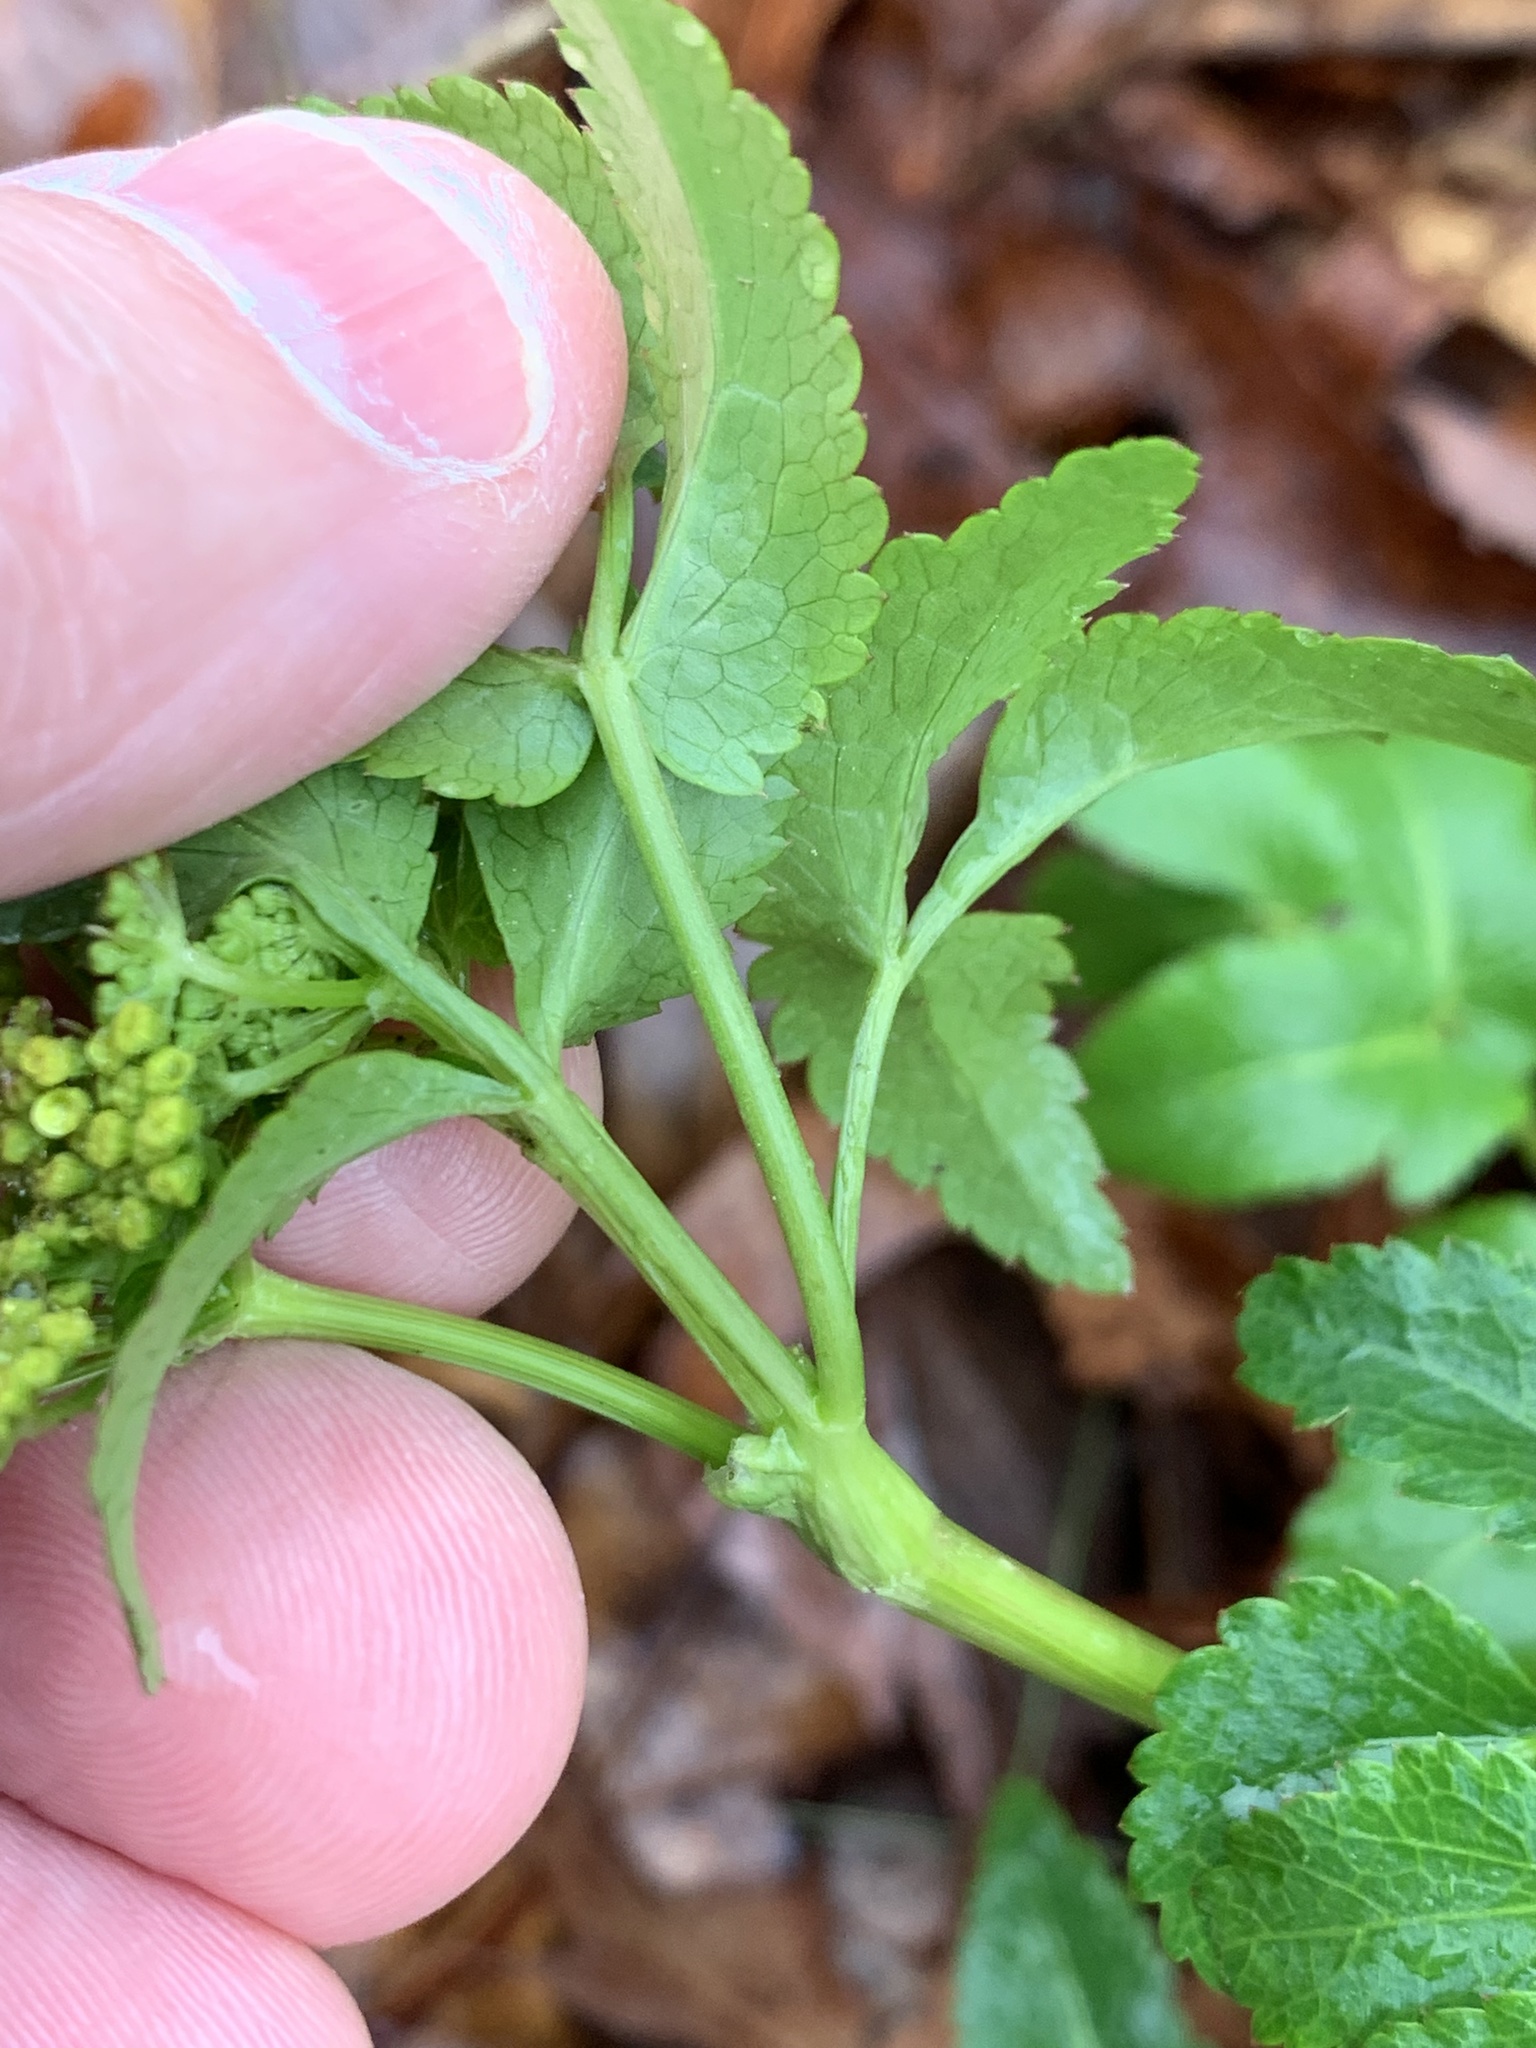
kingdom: Plantae
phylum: Tracheophyta
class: Magnoliopsida
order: Apiales
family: Apiaceae
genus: Zizia
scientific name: Zizia aurea
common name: Golden alexanders
